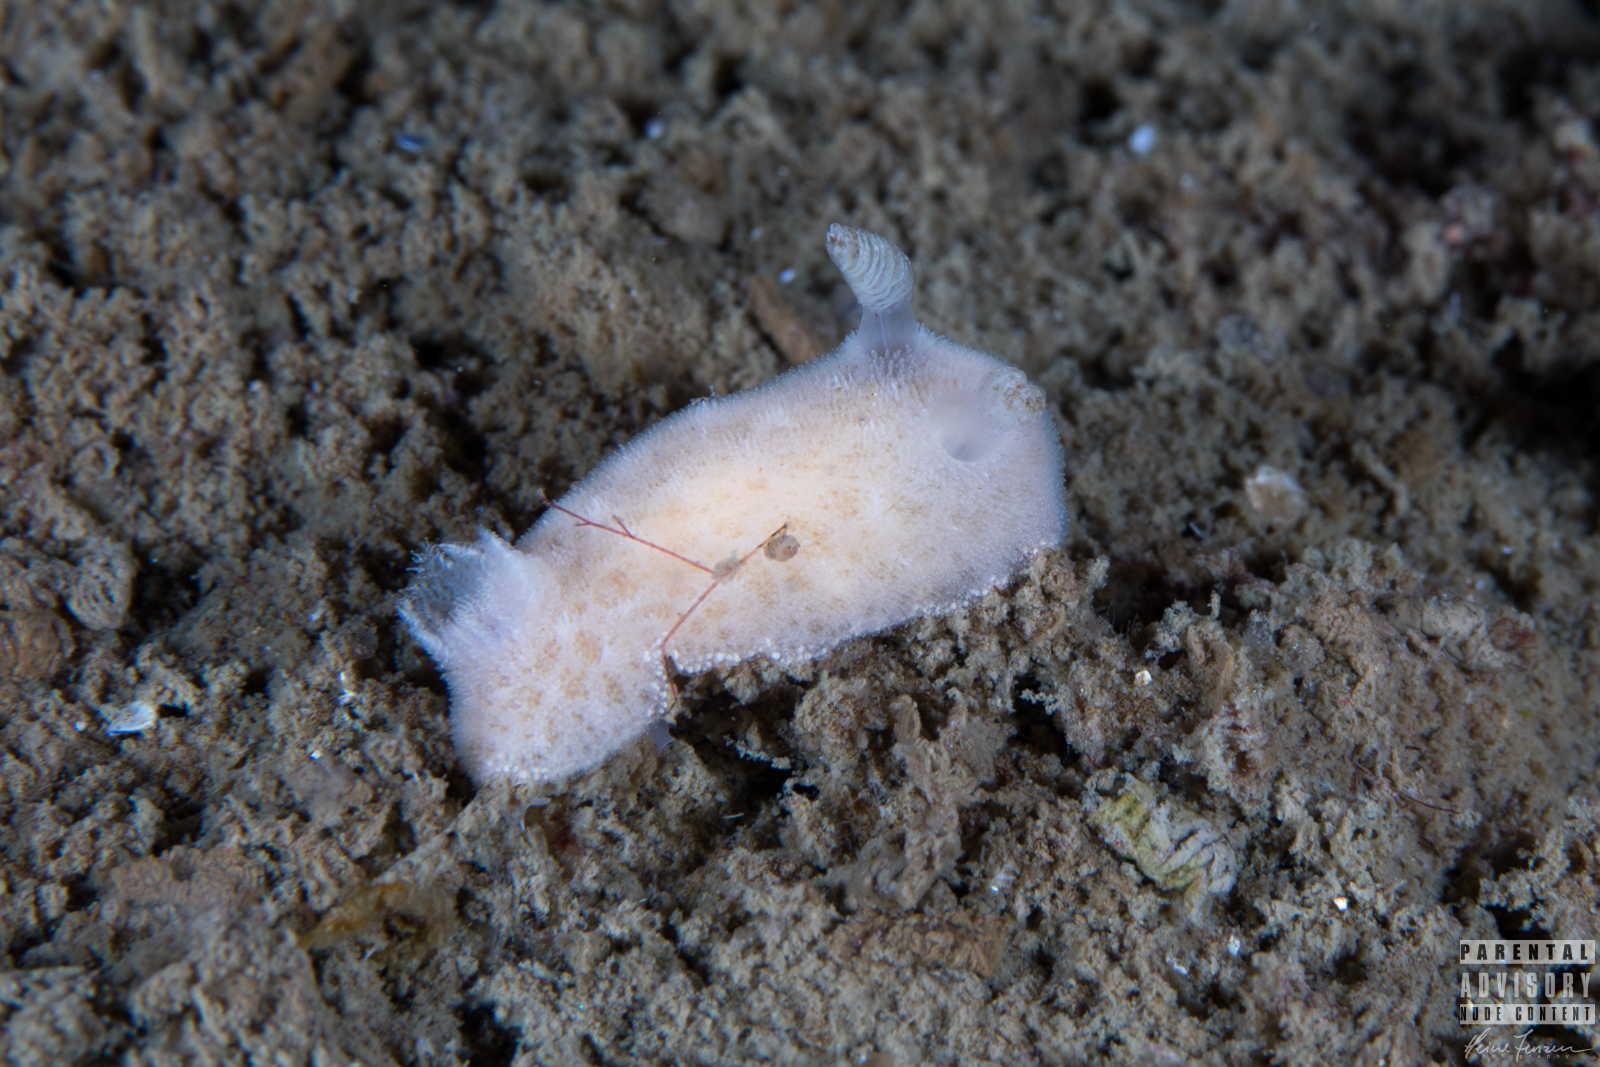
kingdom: Animalia
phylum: Mollusca
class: Gastropoda
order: Nudibranchia
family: Discodorididae
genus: Jorunna
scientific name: Jorunna tomentosa
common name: Grey sea slug
